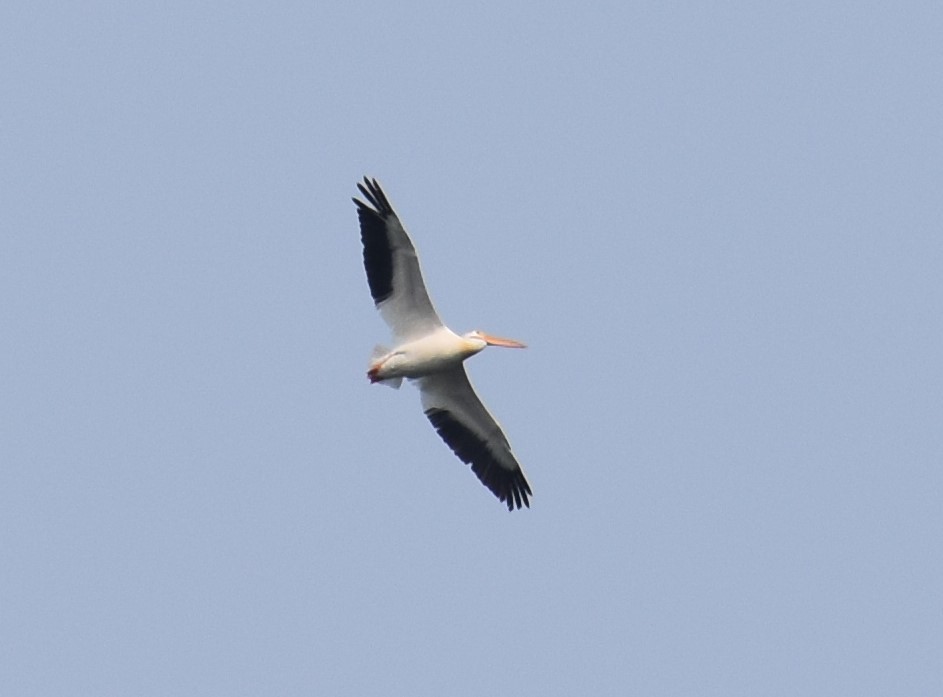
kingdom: Animalia
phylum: Chordata
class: Aves
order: Pelecaniformes
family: Pelecanidae
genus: Pelecanus
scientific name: Pelecanus erythrorhynchos
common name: American white pelican
